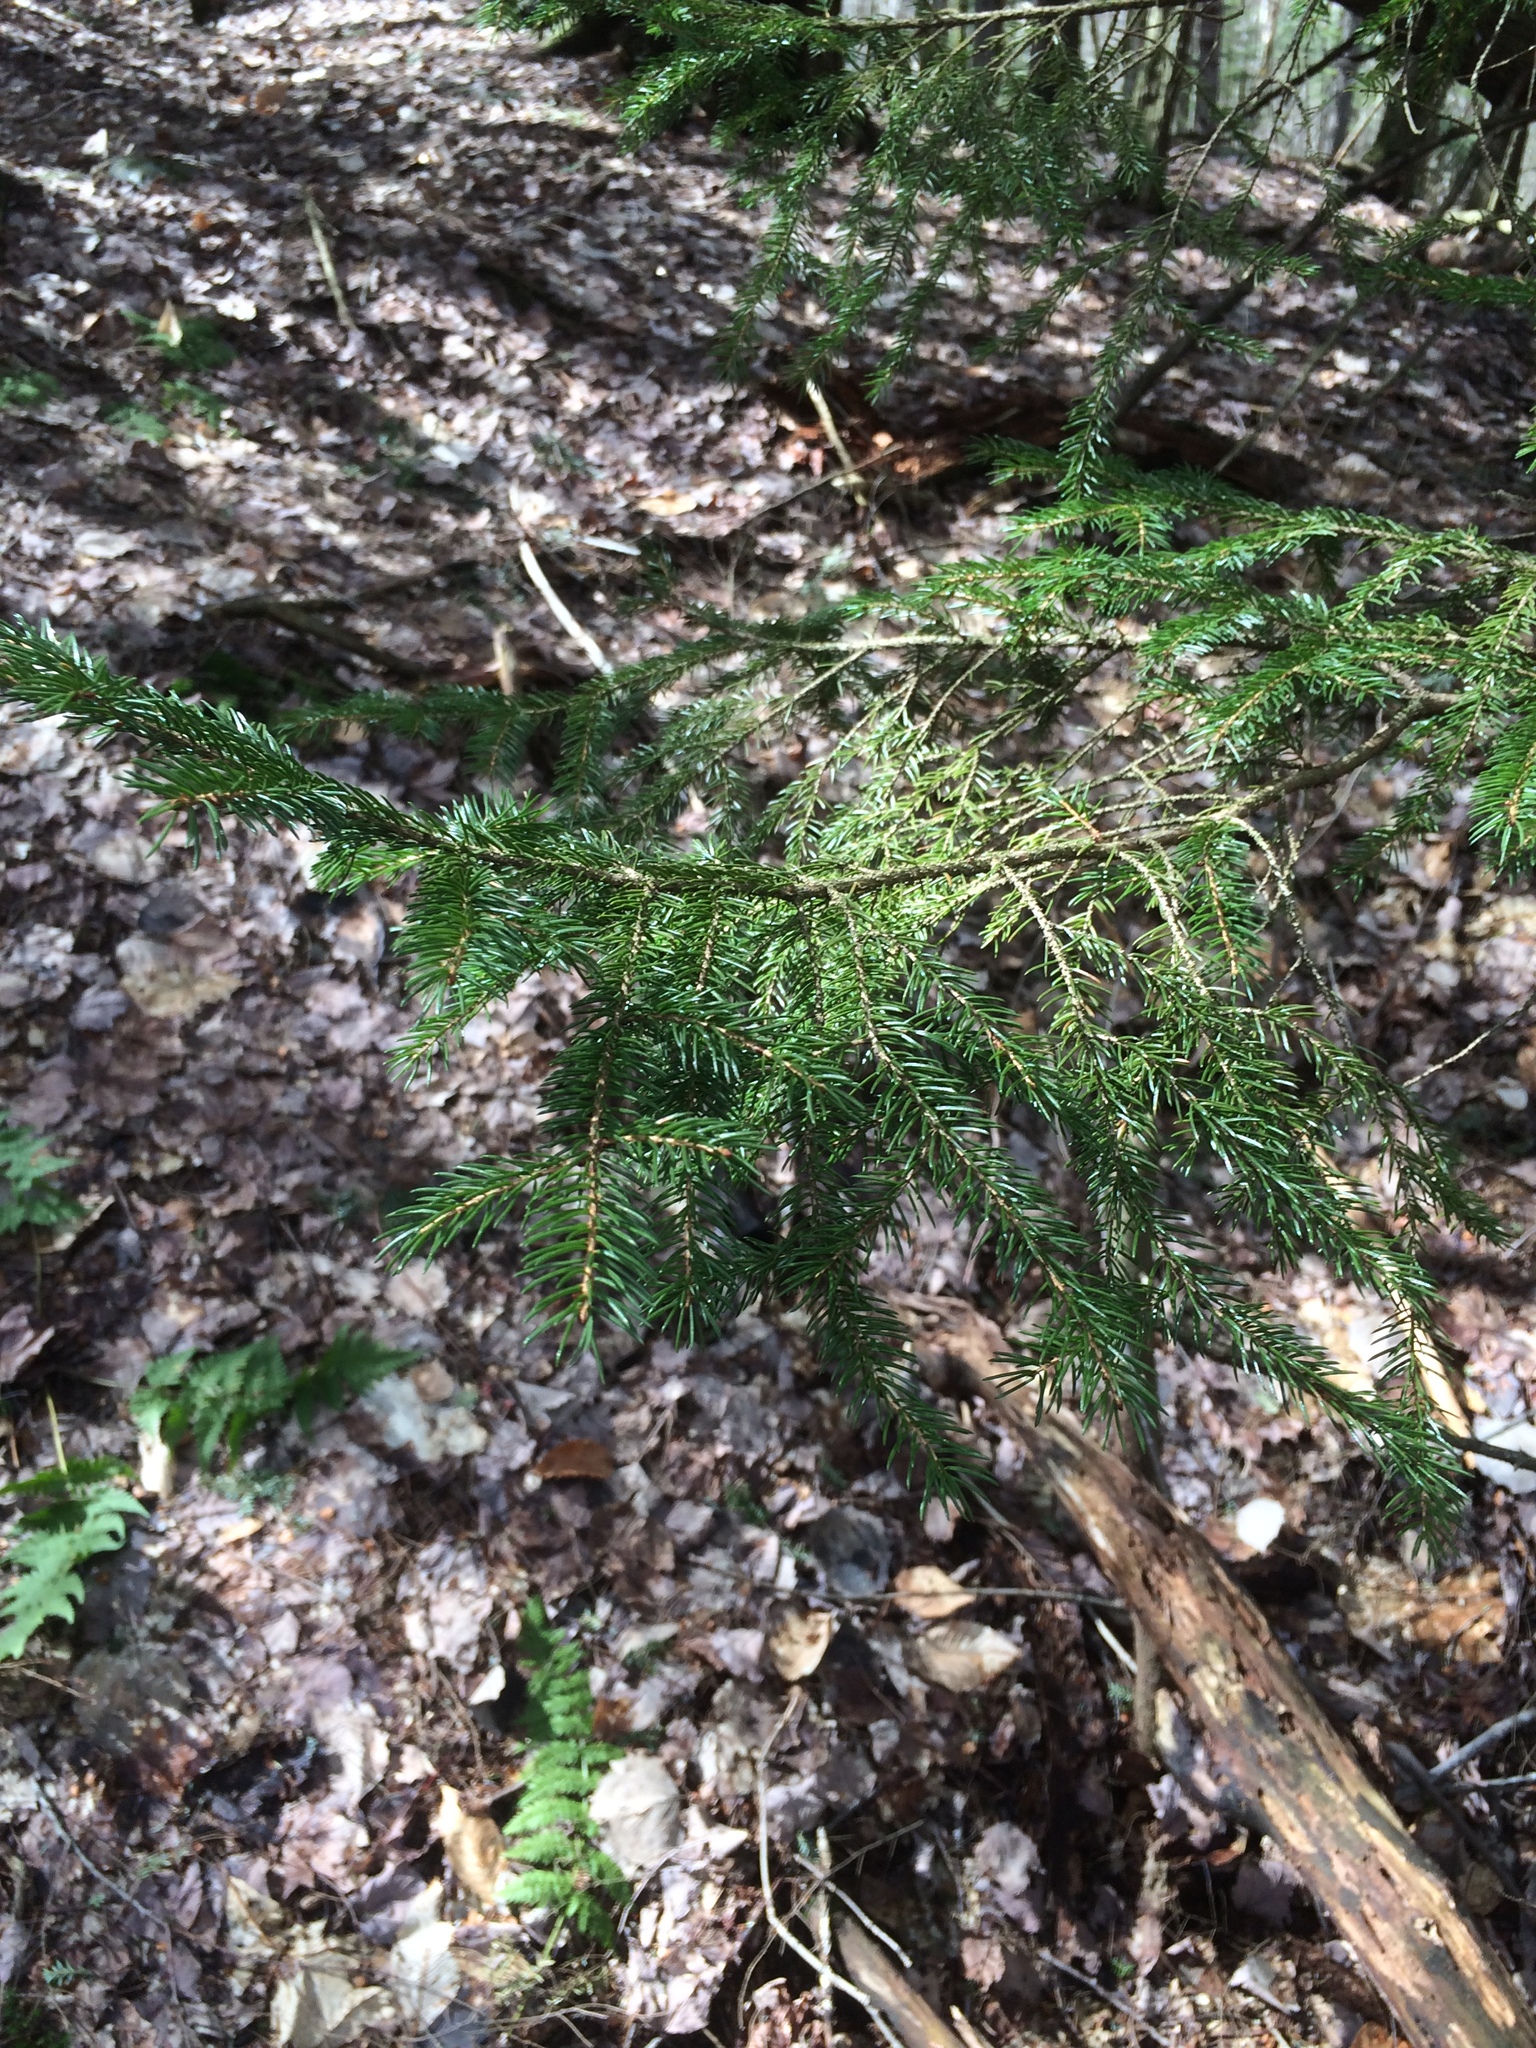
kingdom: Plantae
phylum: Tracheophyta
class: Pinopsida
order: Pinales
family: Pinaceae
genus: Picea
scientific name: Picea rubens
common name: Red spruce
